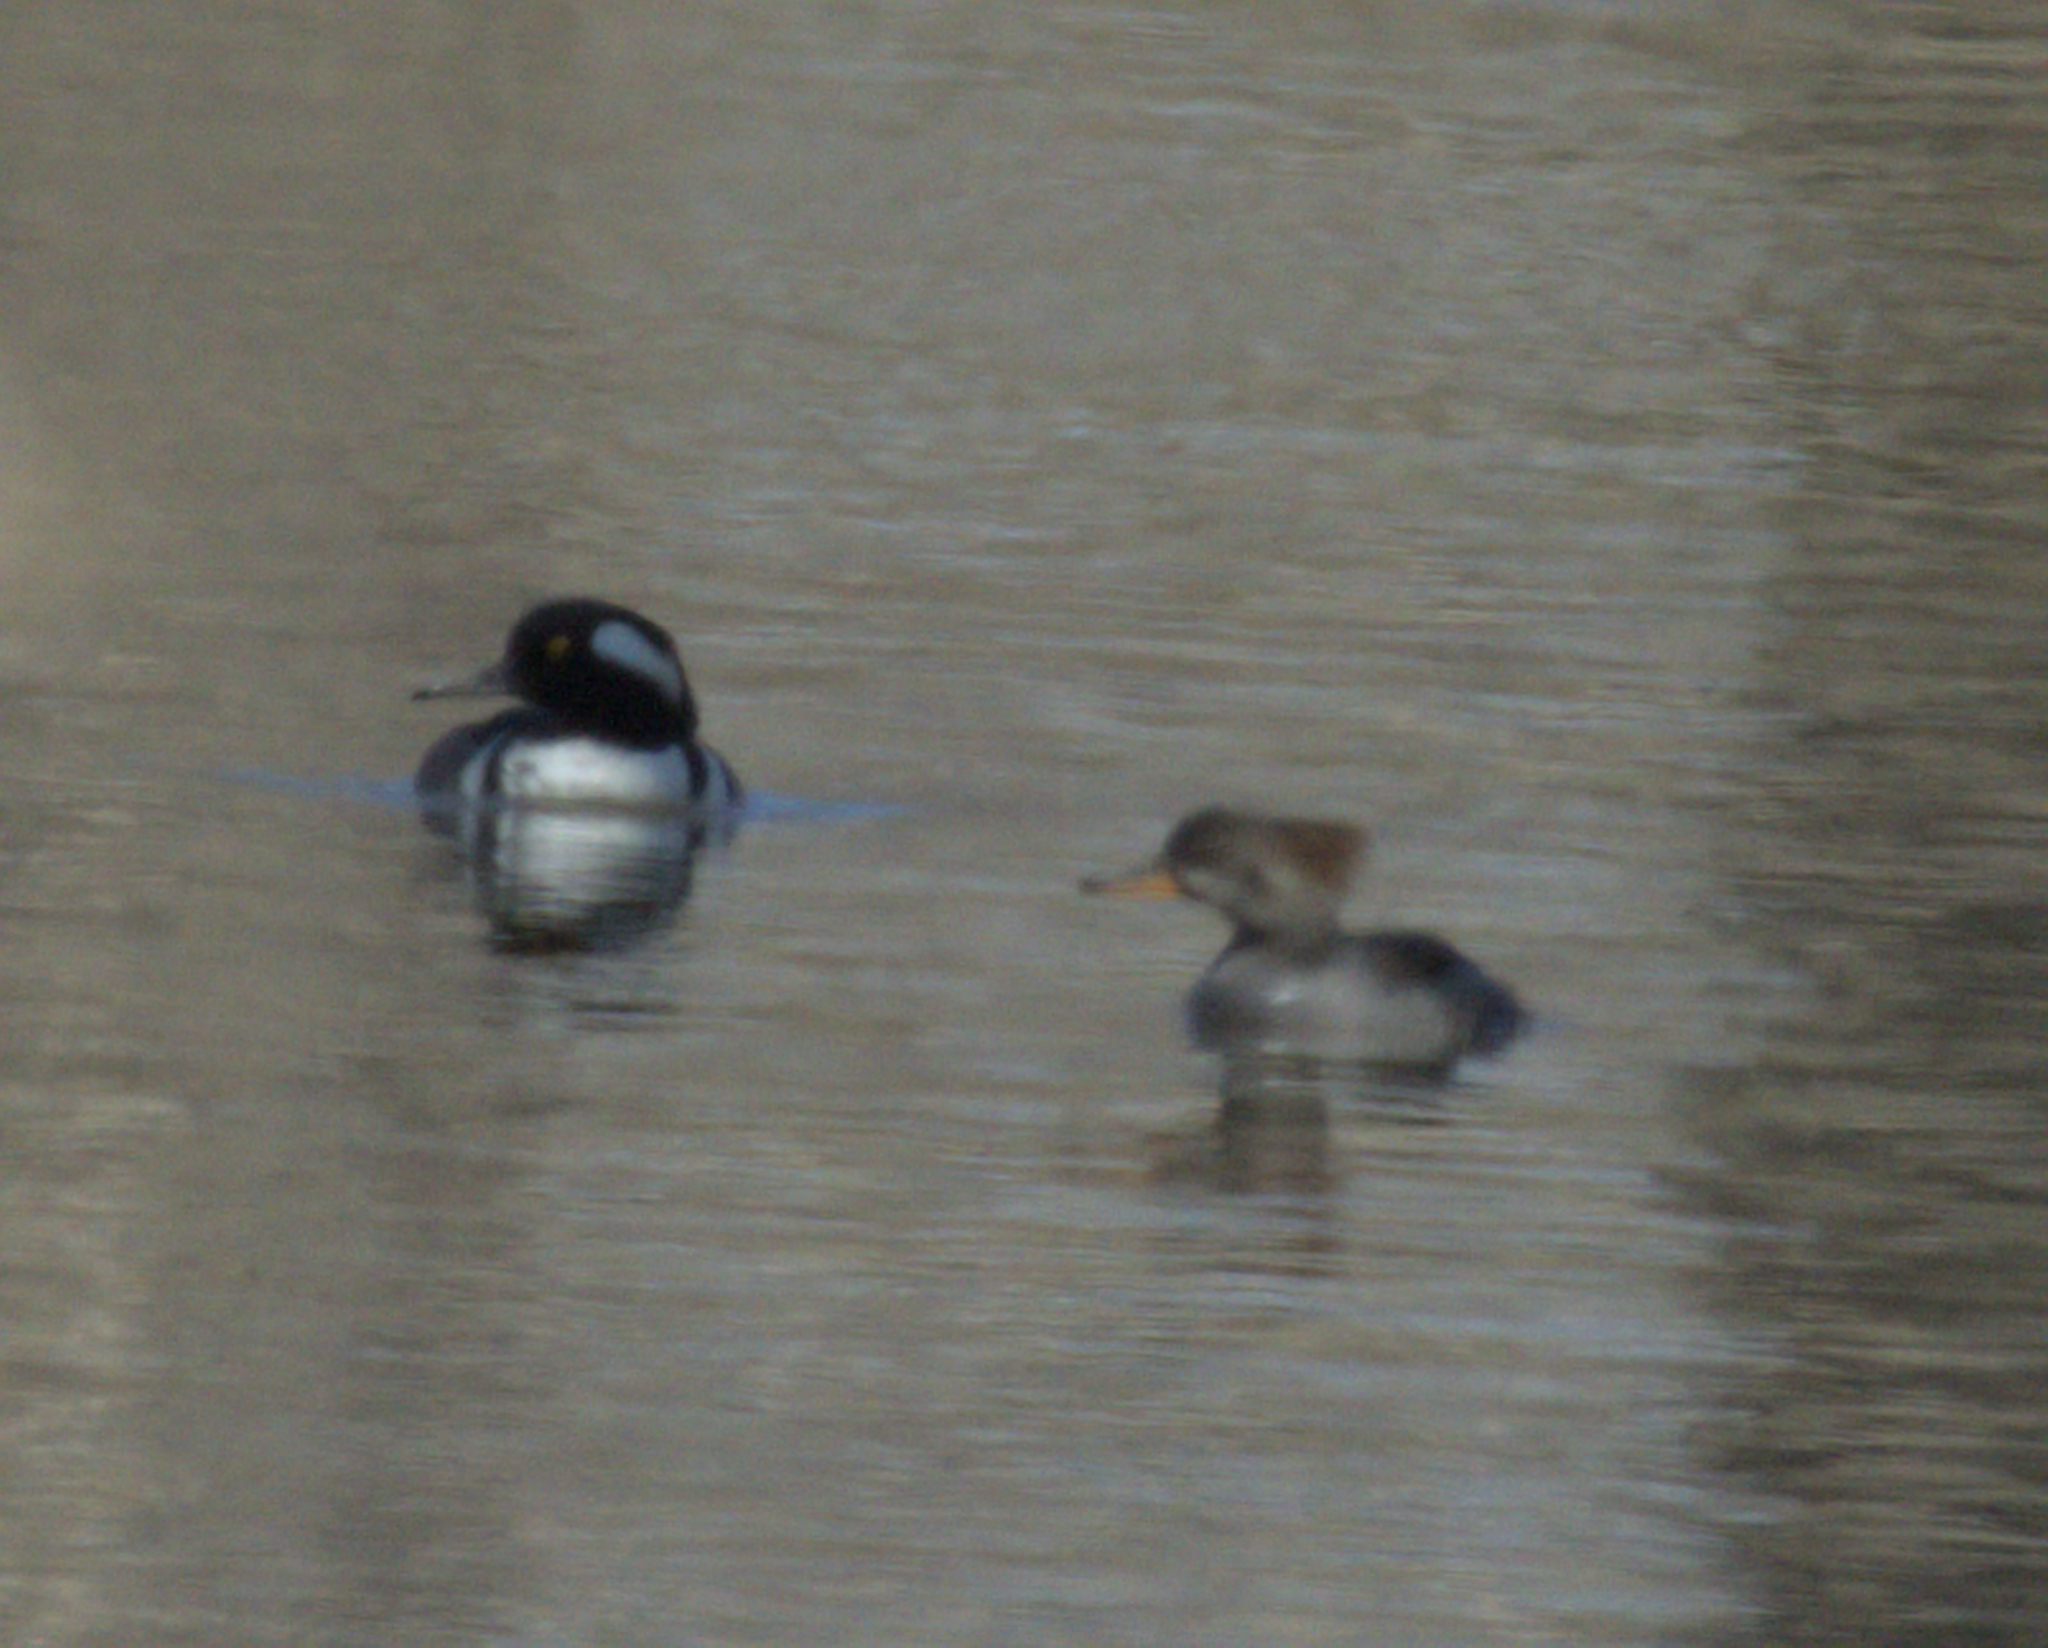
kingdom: Animalia
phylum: Chordata
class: Aves
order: Anseriformes
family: Anatidae
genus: Lophodytes
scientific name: Lophodytes cucullatus
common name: Hooded merganser
